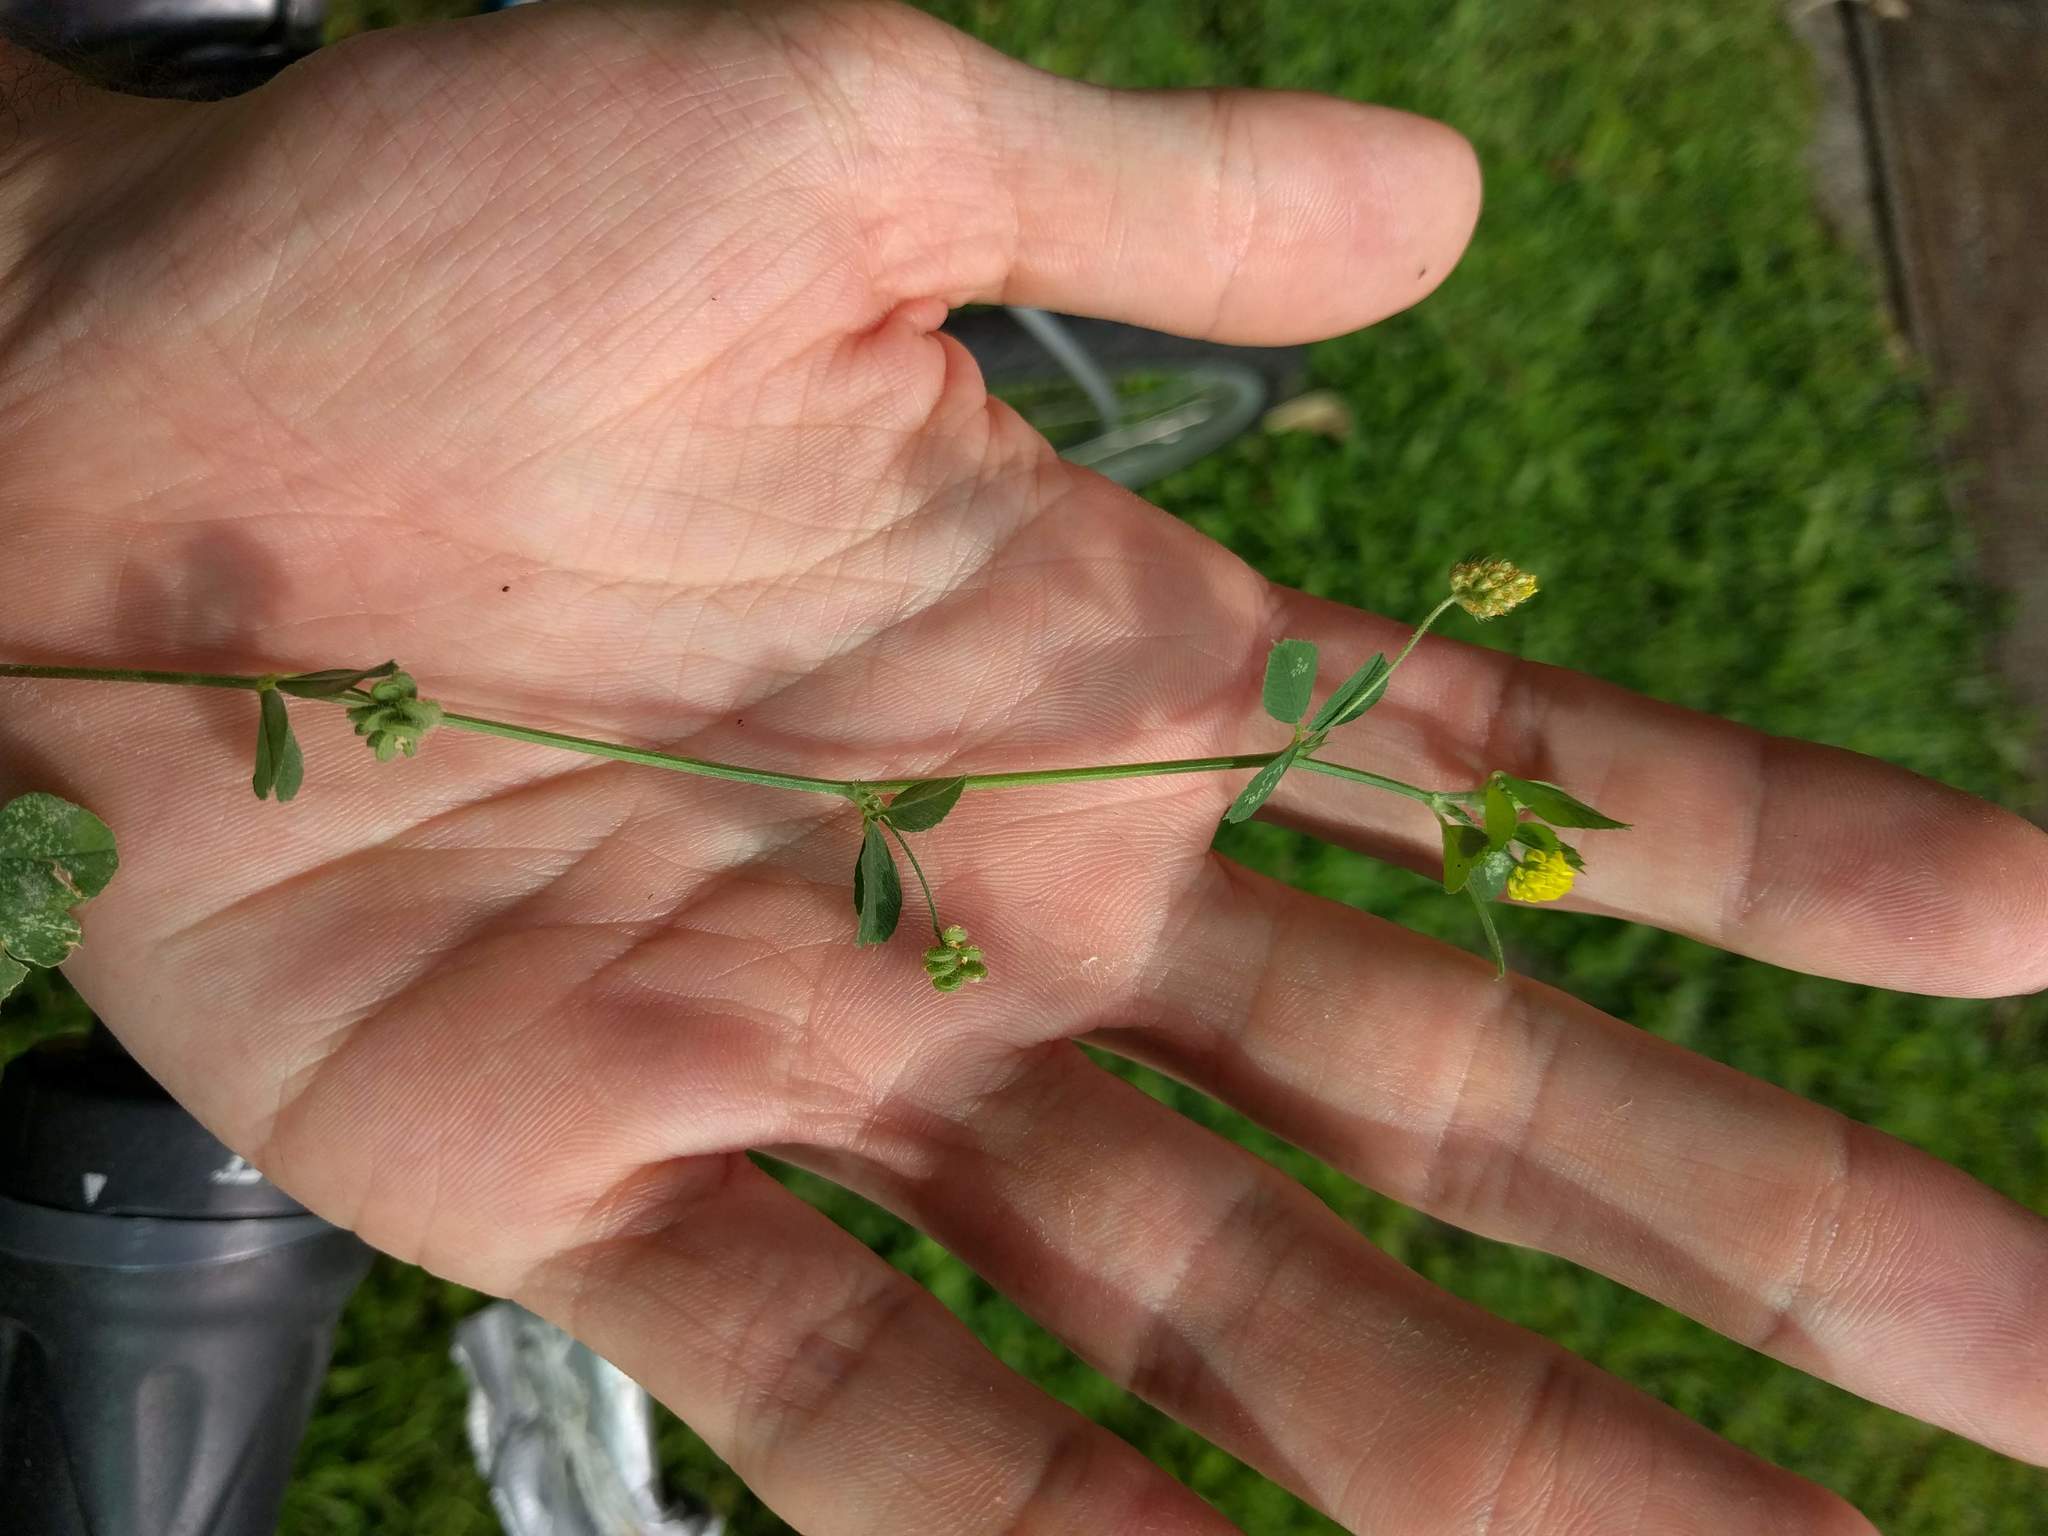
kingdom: Plantae
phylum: Tracheophyta
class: Magnoliopsida
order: Fabales
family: Fabaceae
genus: Medicago
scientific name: Medicago lupulina
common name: Black medick
